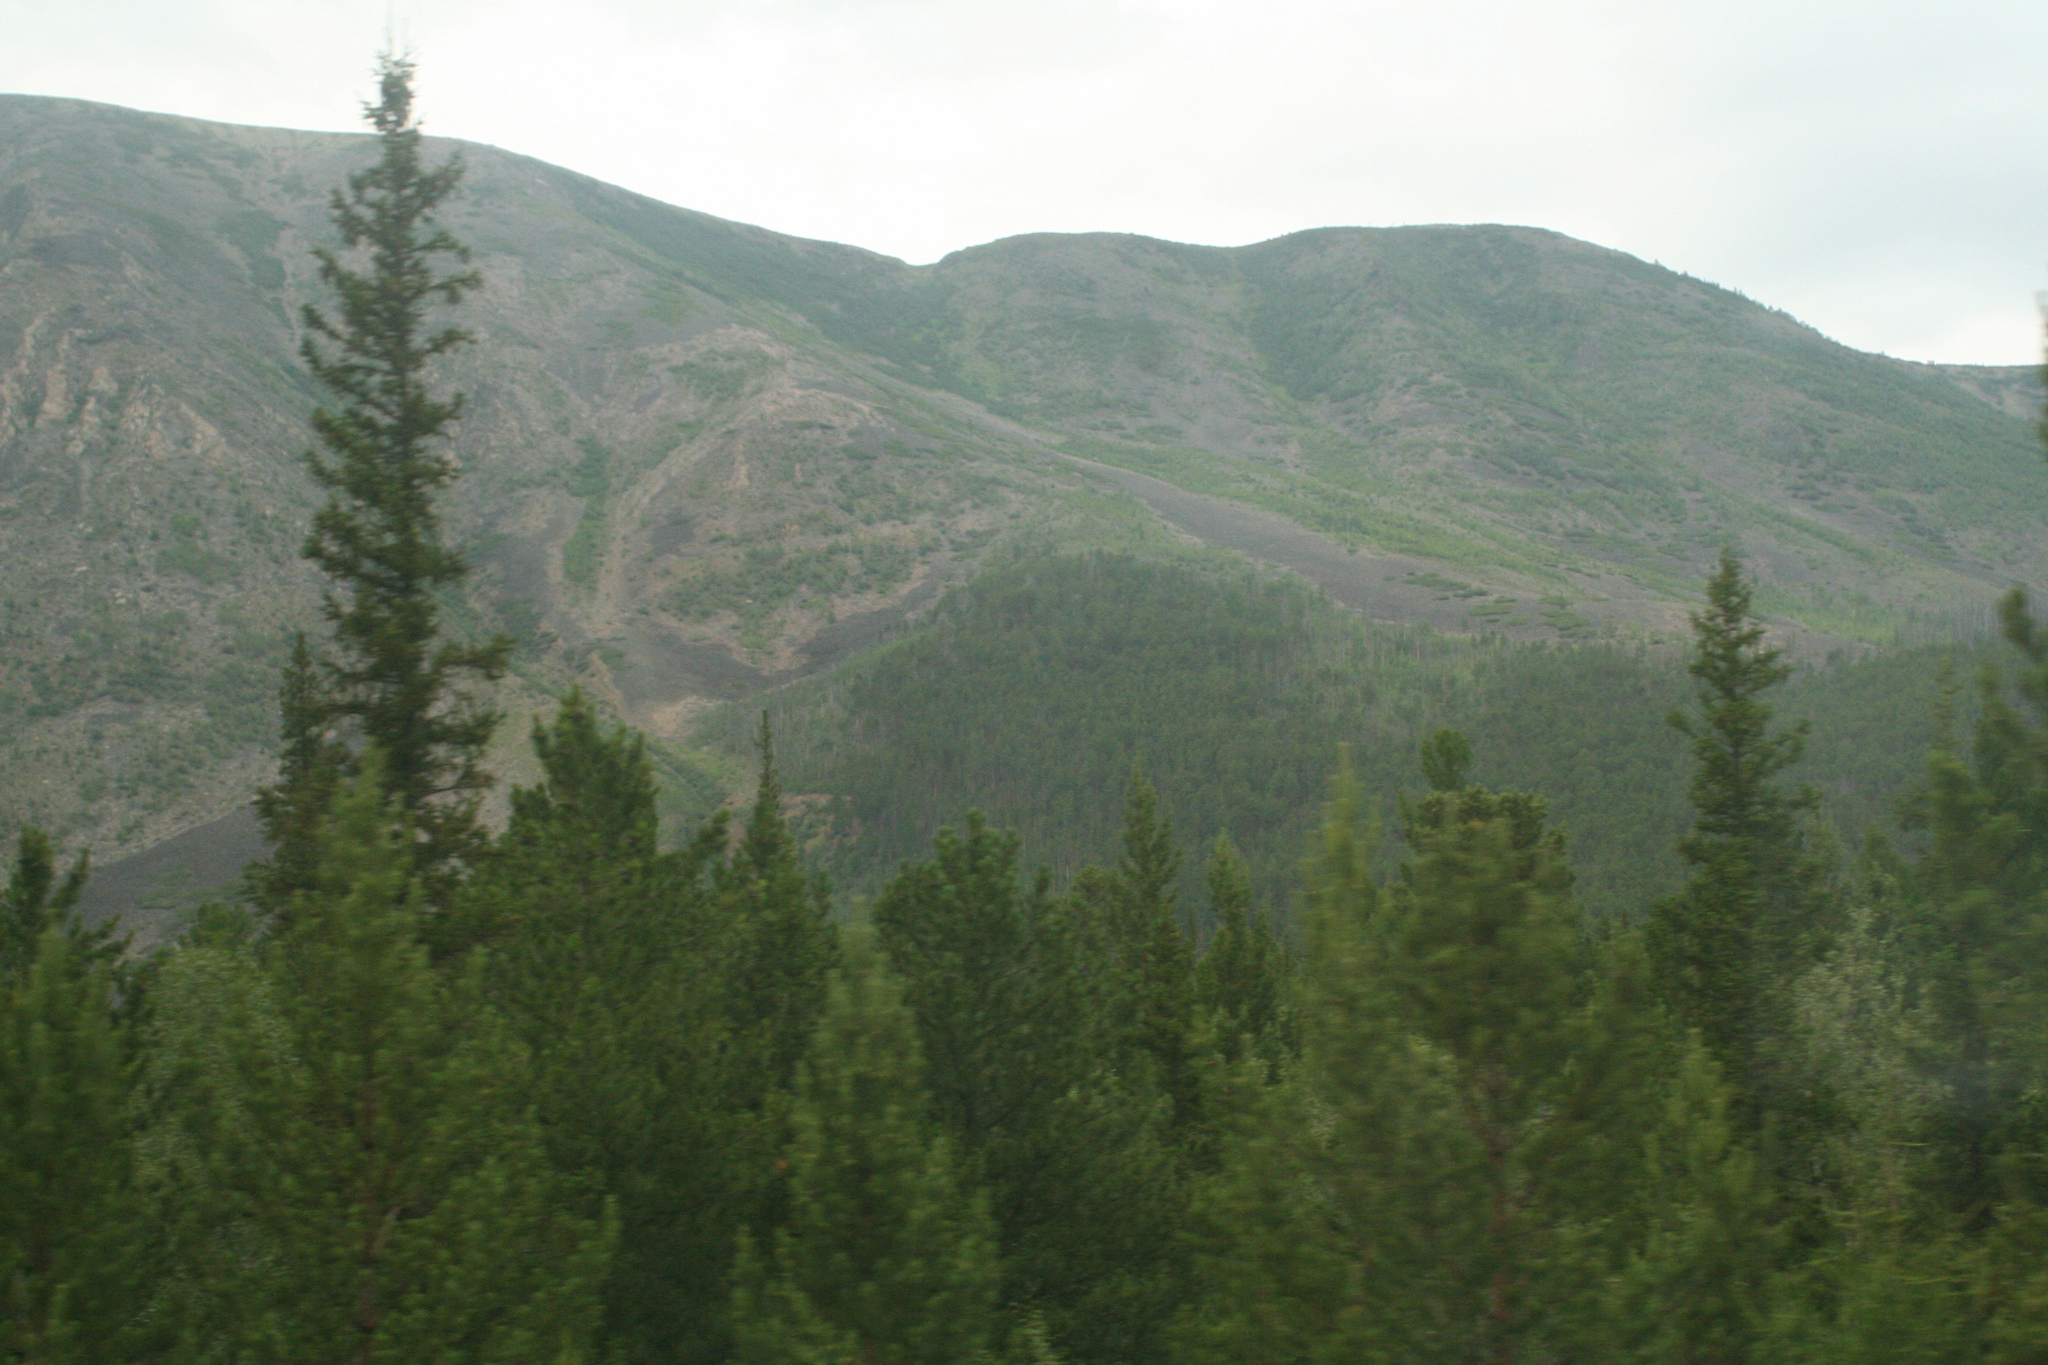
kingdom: Plantae
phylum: Tracheophyta
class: Pinopsida
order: Pinales
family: Pinaceae
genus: Picea
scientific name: Picea obovata
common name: Siberian spruce
